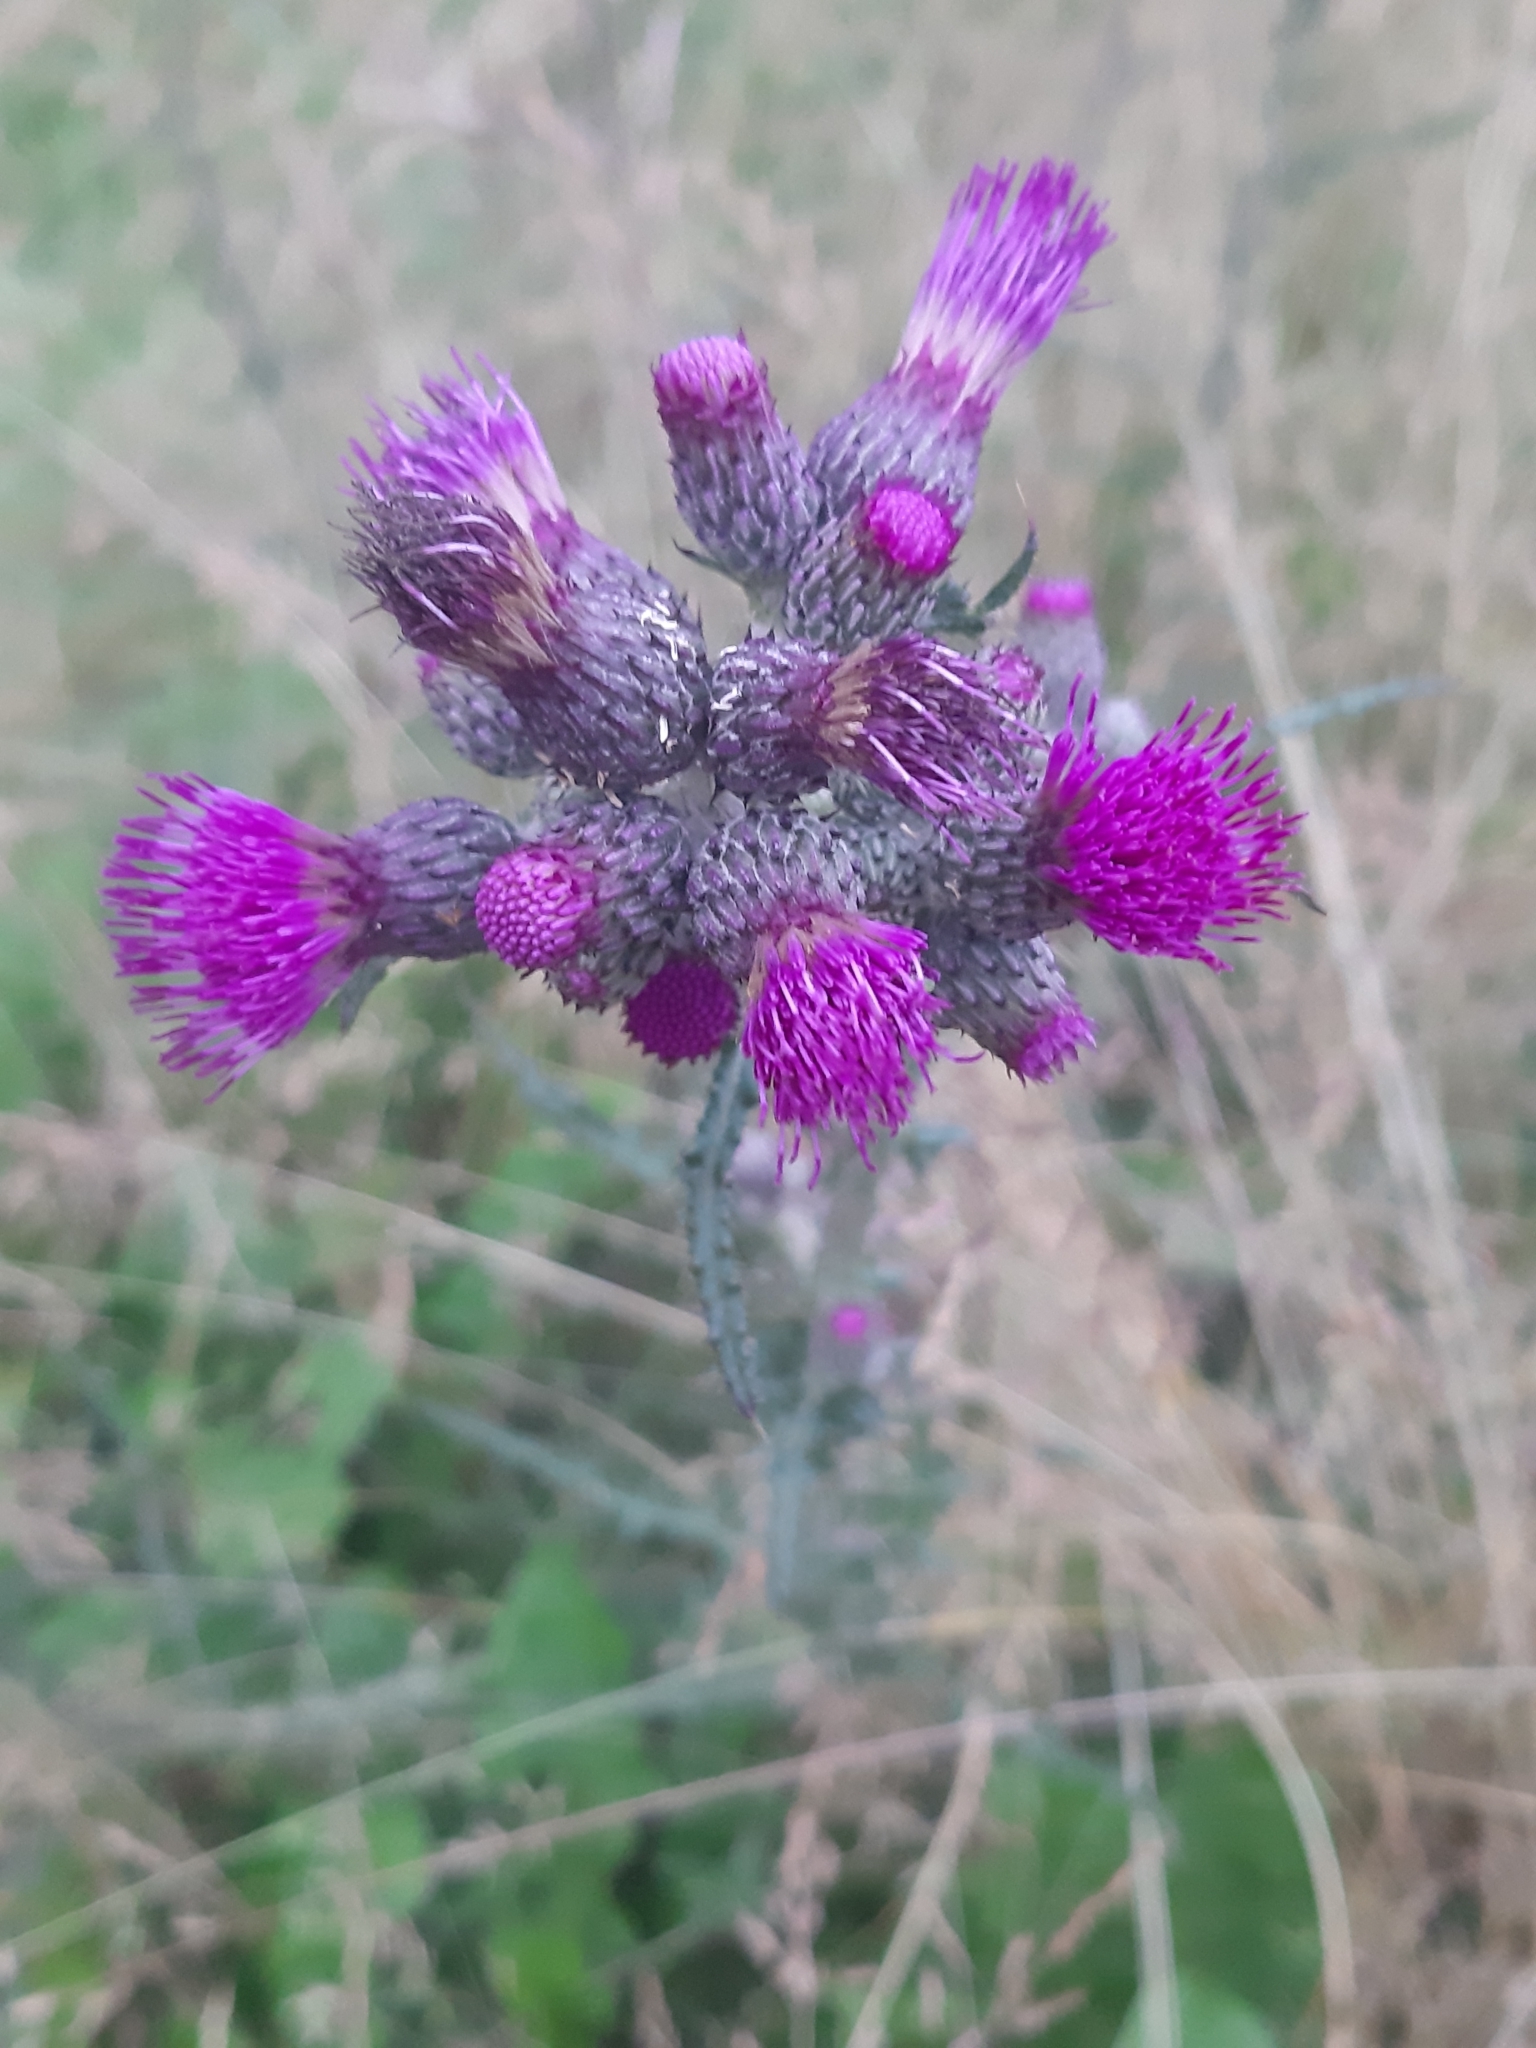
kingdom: Plantae
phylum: Tracheophyta
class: Magnoliopsida
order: Asterales
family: Asteraceae
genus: Cirsium
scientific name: Cirsium palustre
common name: Marsh thistle
